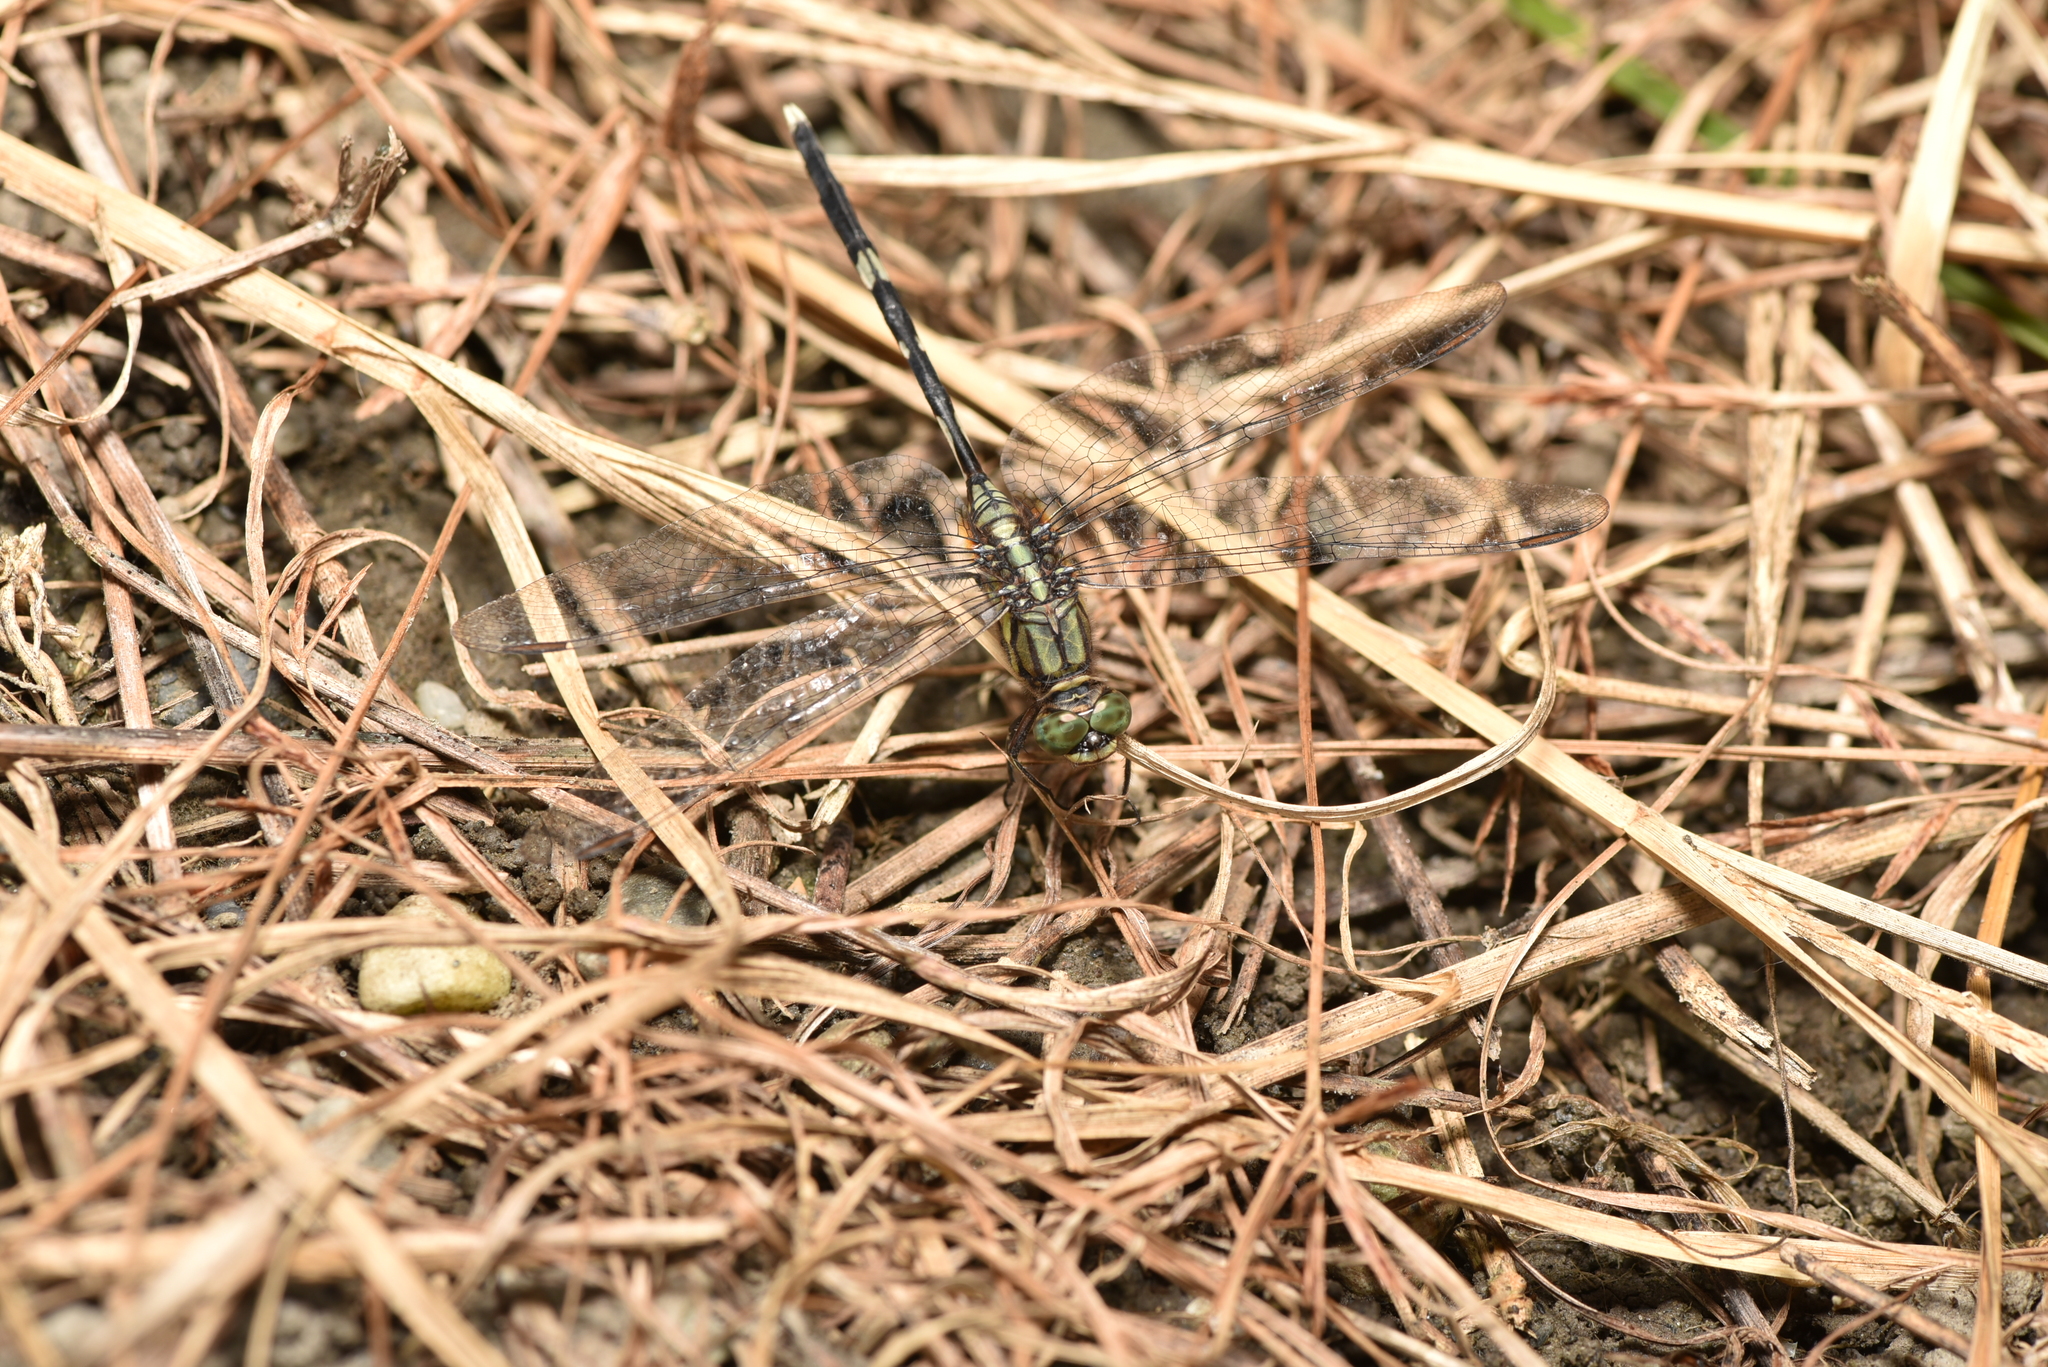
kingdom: Animalia
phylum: Arthropoda
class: Insecta
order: Odonata
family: Libellulidae
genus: Orthetrum
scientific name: Orthetrum sabina
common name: Slender skimmer
